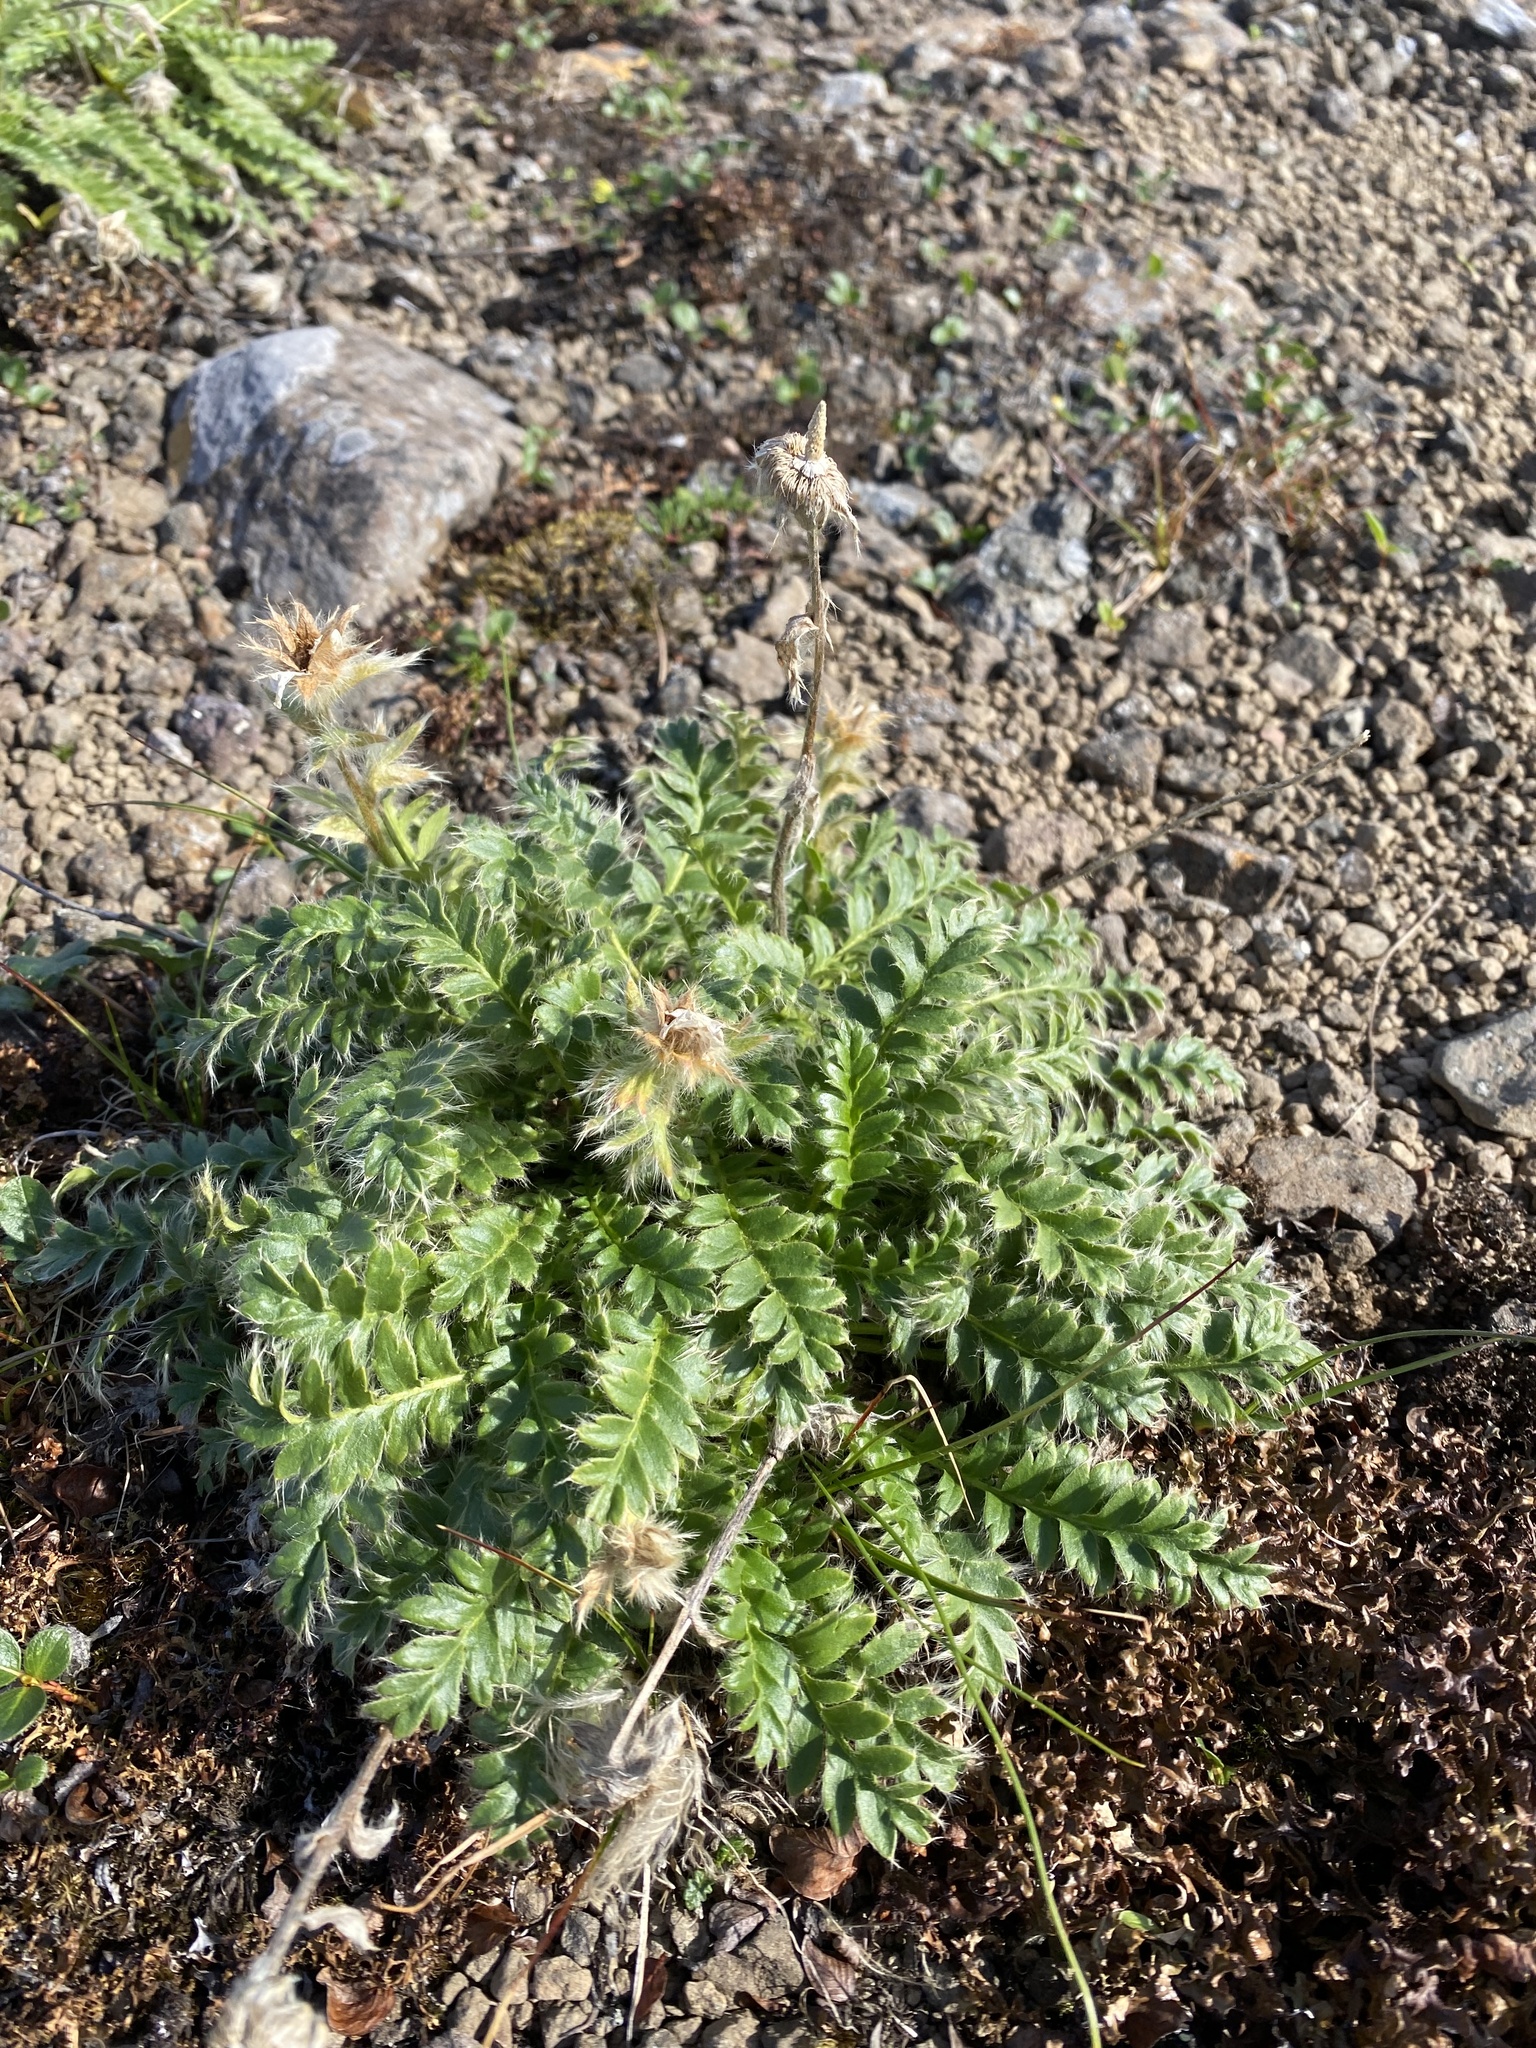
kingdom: Plantae
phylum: Tracheophyta
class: Magnoliopsida
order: Rosales
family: Rosaceae
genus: Geum
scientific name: Geum glaciale
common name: Glacier avens
